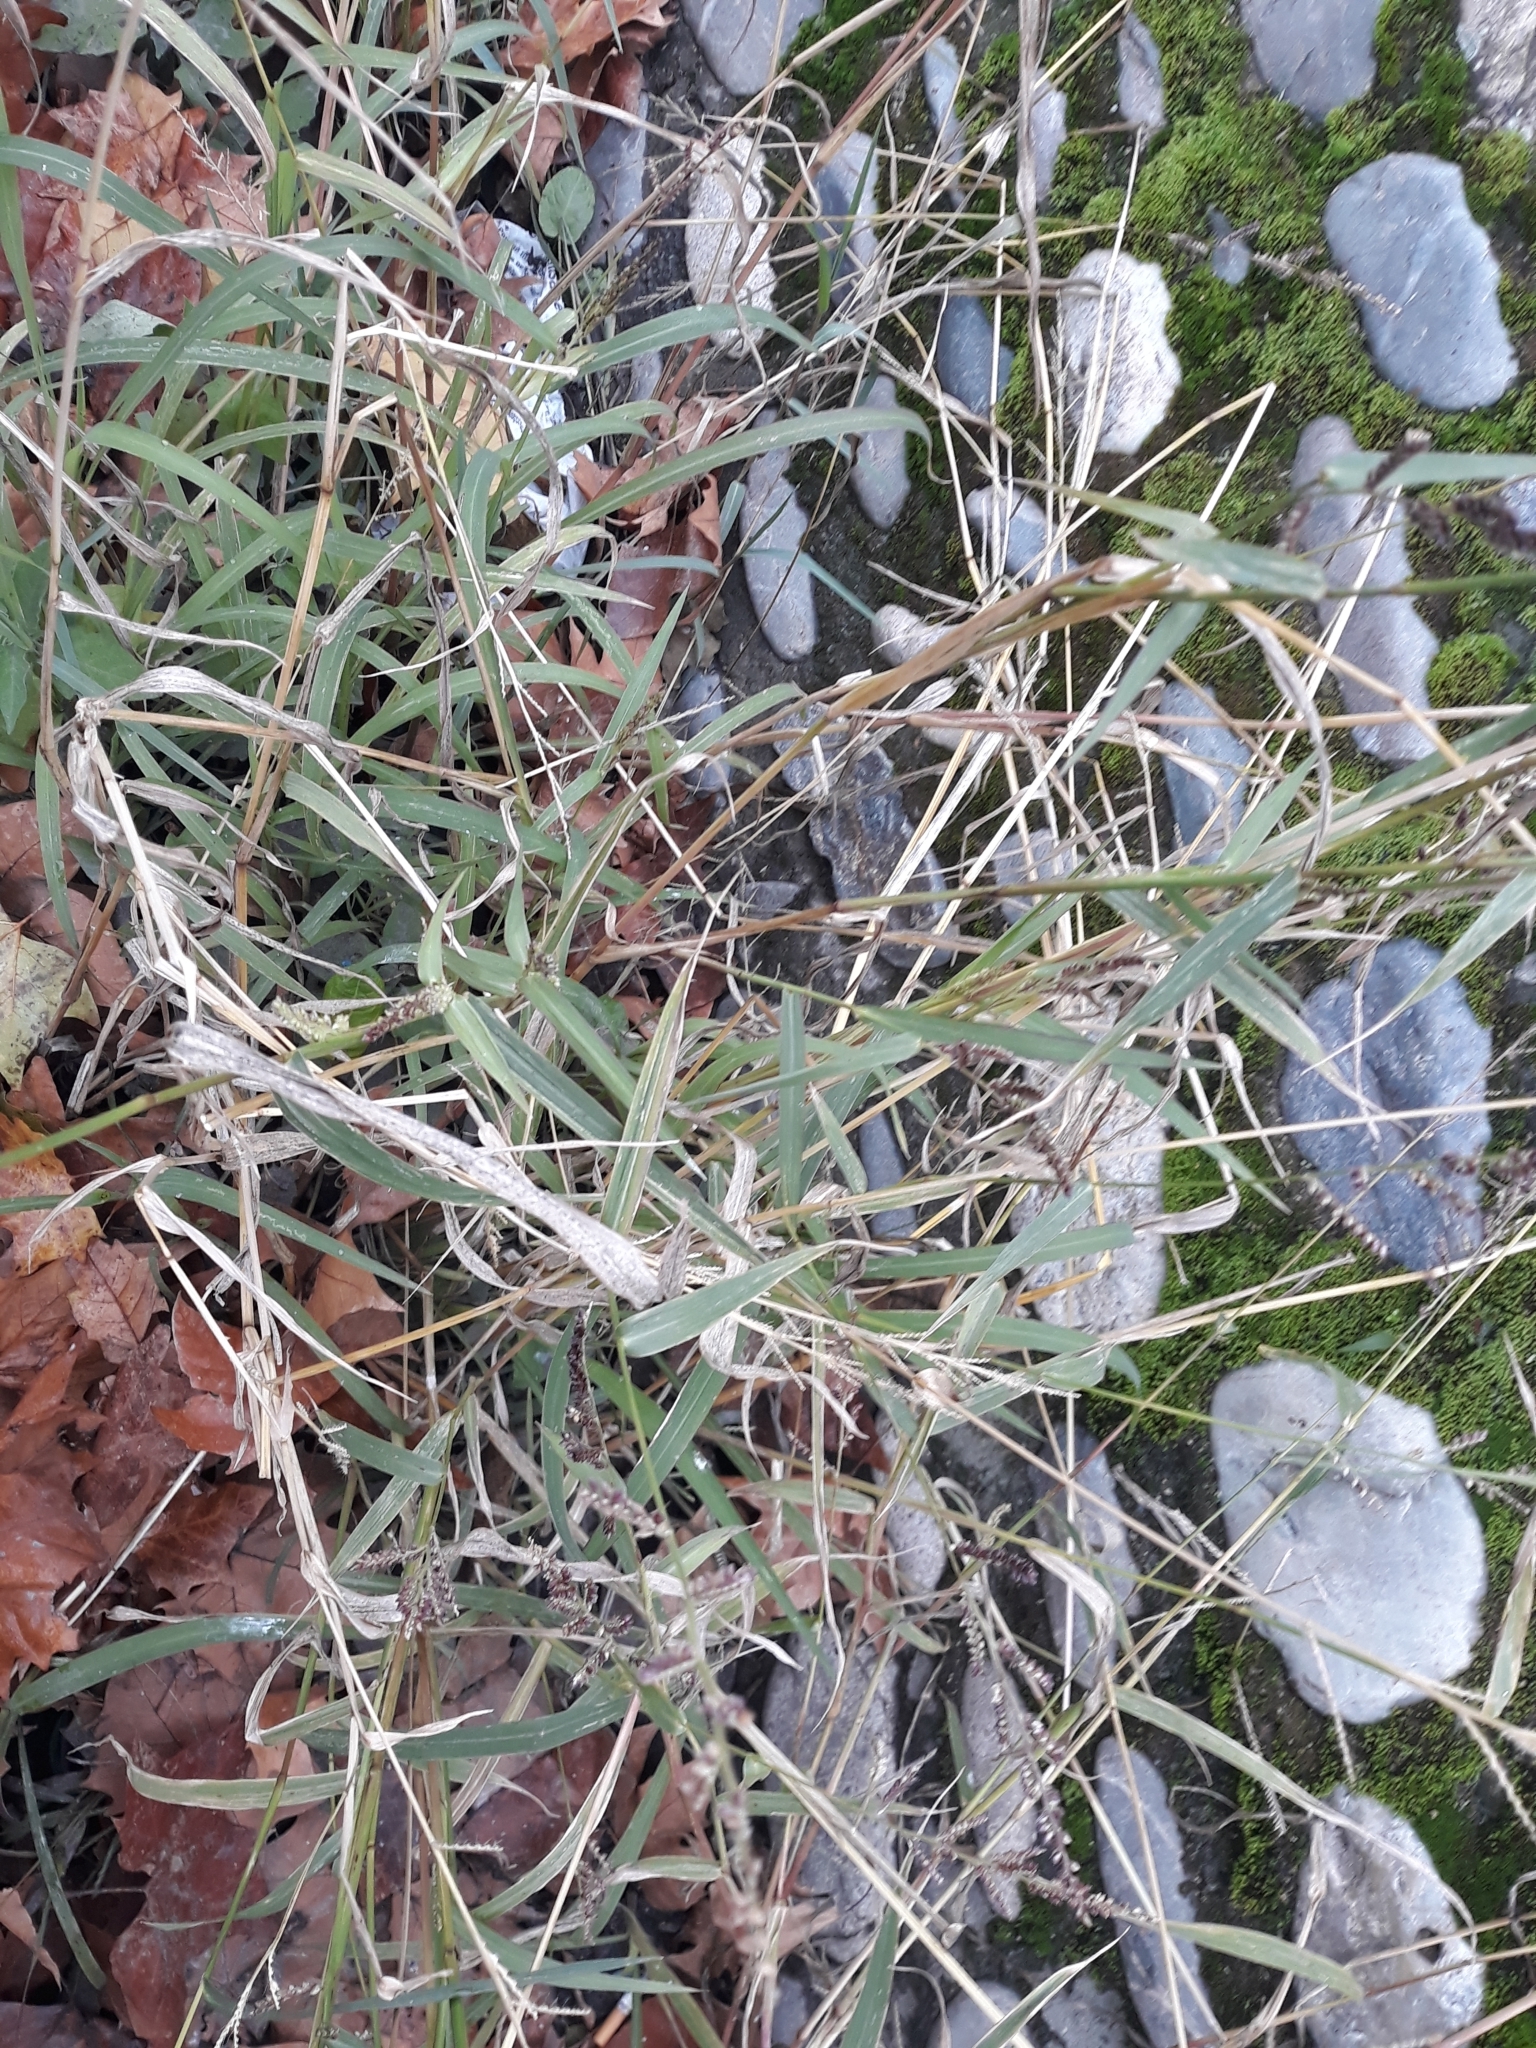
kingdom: Plantae
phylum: Tracheophyta
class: Liliopsida
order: Poales
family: Poaceae
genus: Echinochloa
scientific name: Echinochloa crus-galli
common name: Cockspur
